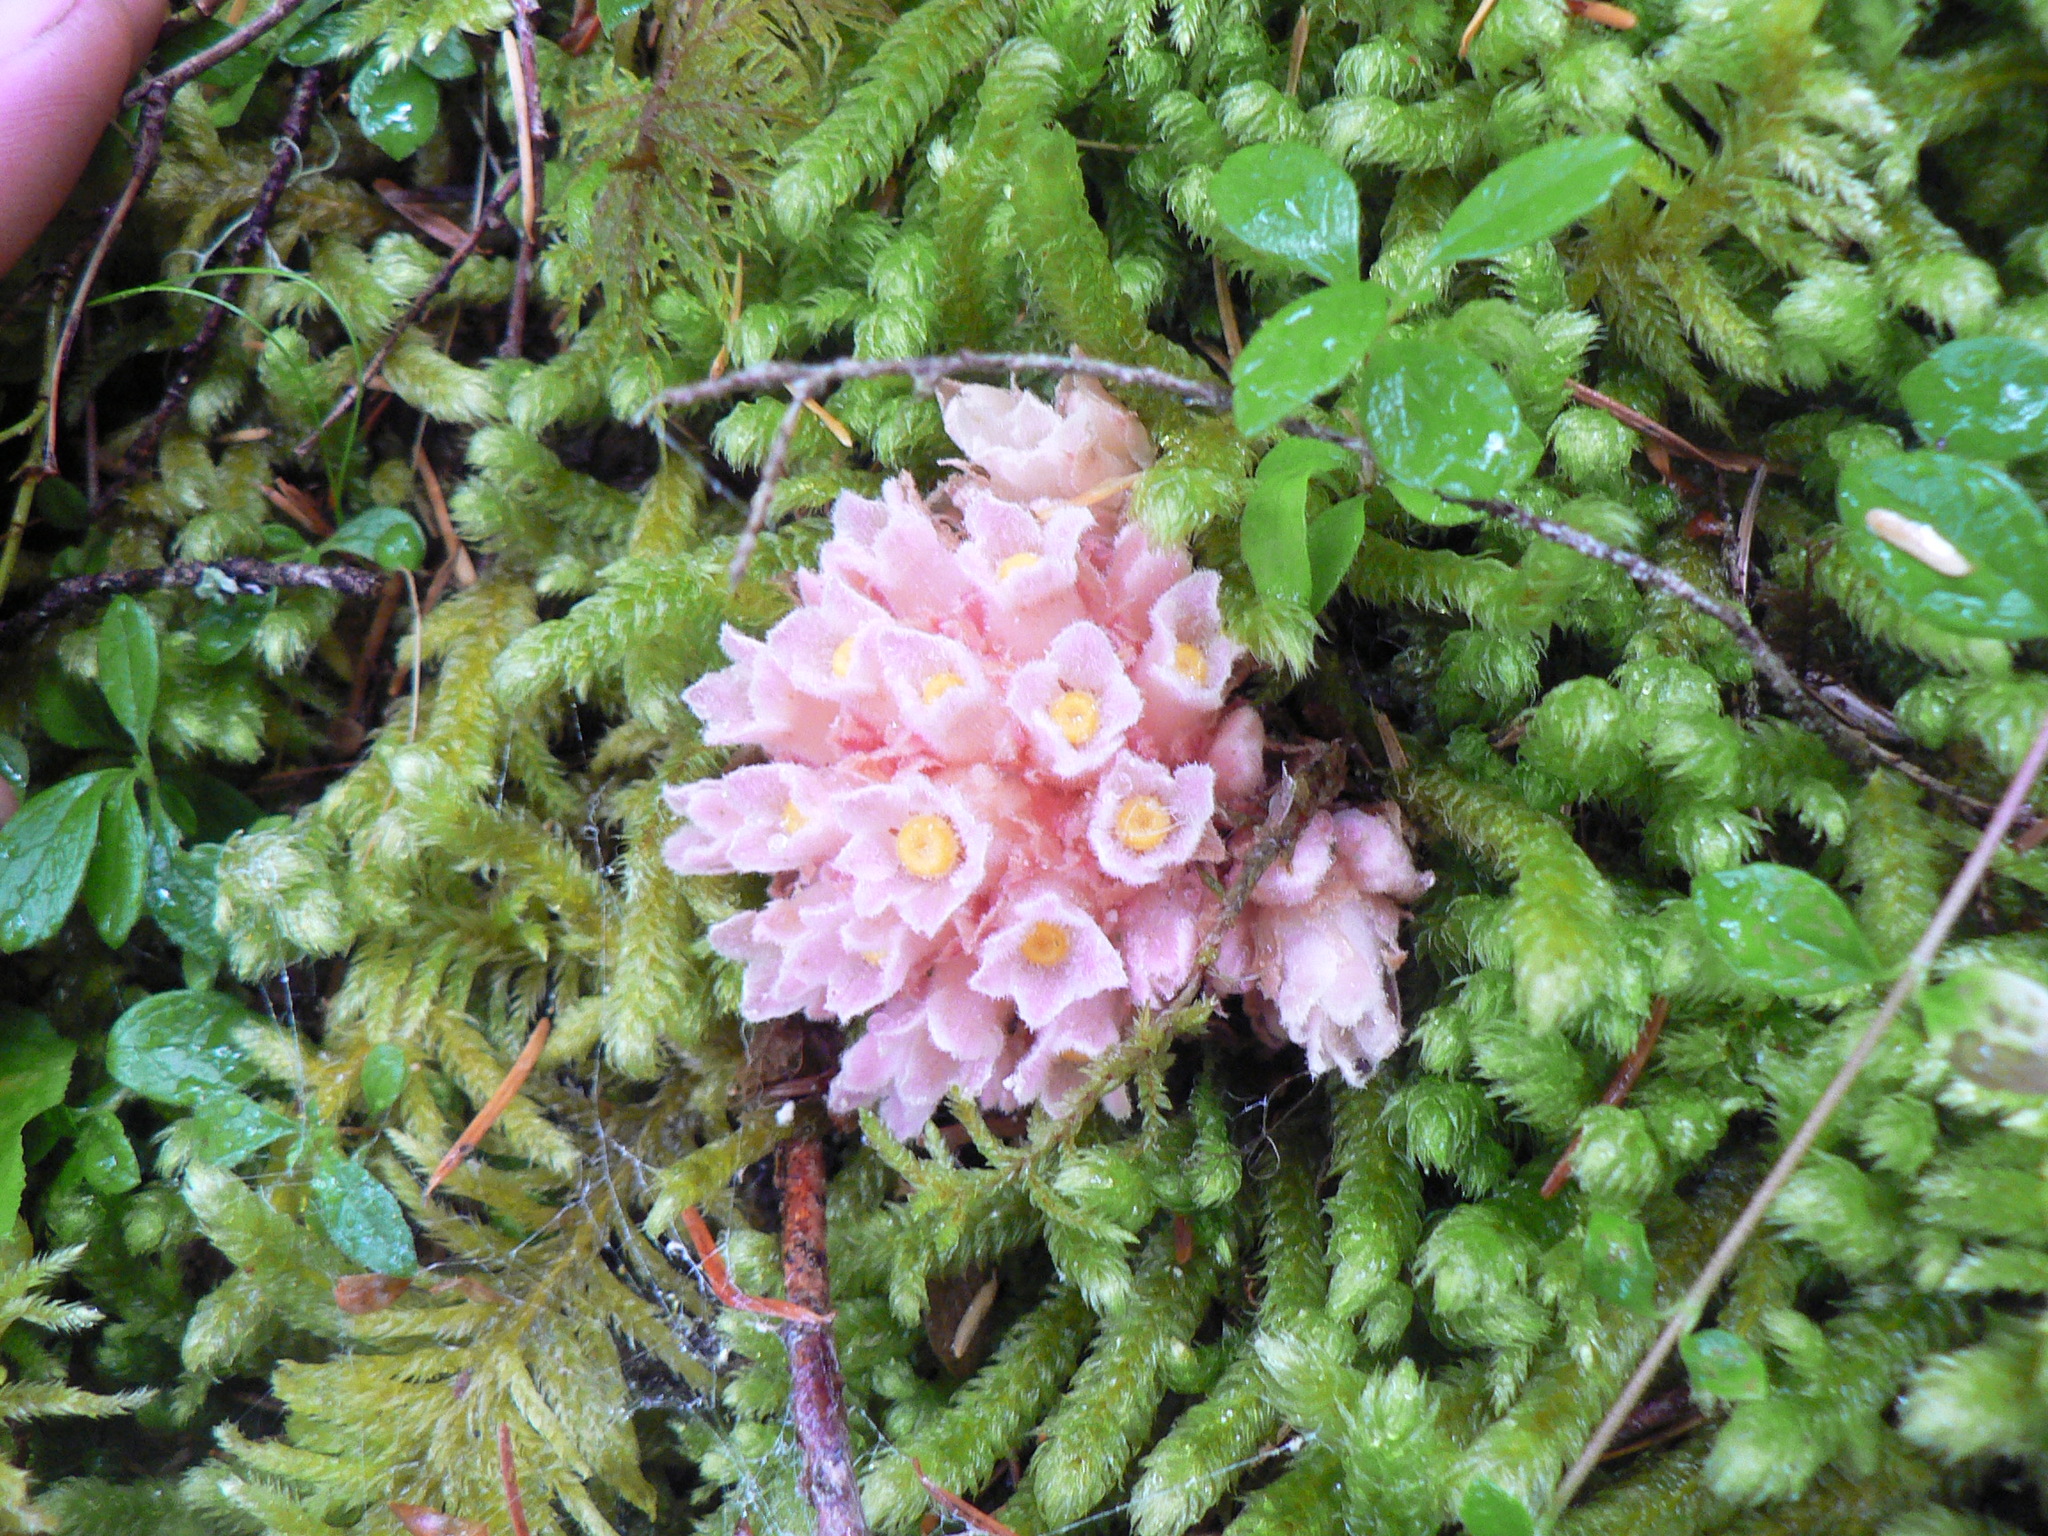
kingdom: Plantae
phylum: Tracheophyta
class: Magnoliopsida
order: Ericales
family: Ericaceae
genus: Hemitomes
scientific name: Hemitomes congestum
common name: Cone plant
